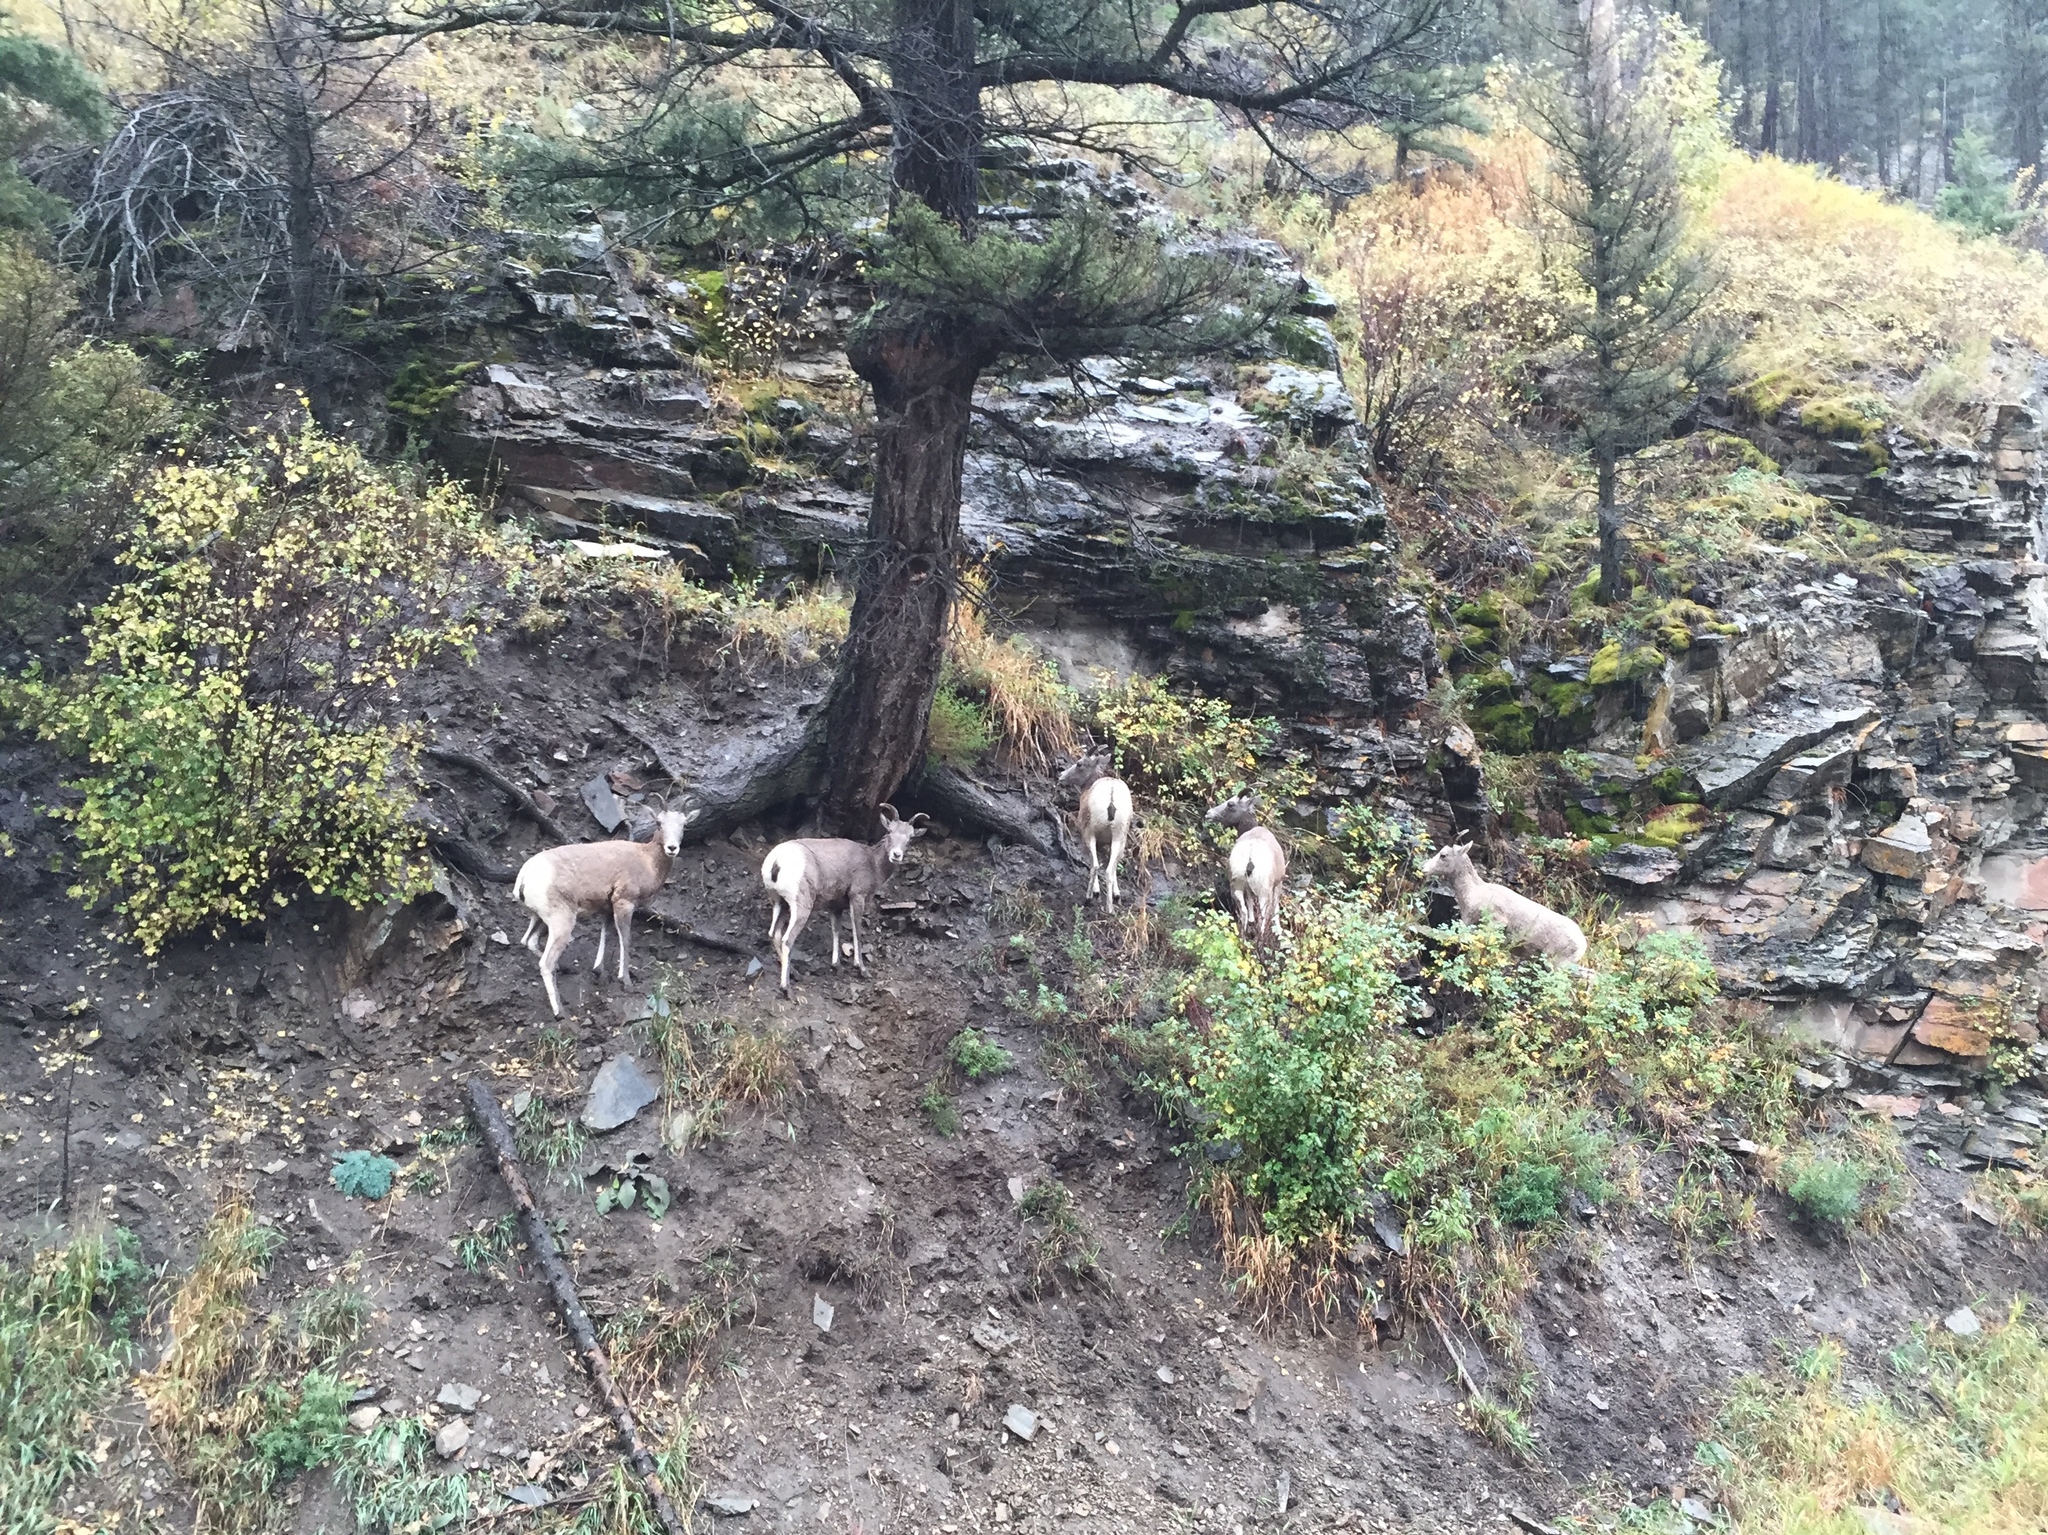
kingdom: Animalia
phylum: Chordata
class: Mammalia
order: Artiodactyla
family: Bovidae
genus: Ovis
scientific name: Ovis canadensis
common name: Bighorn sheep
